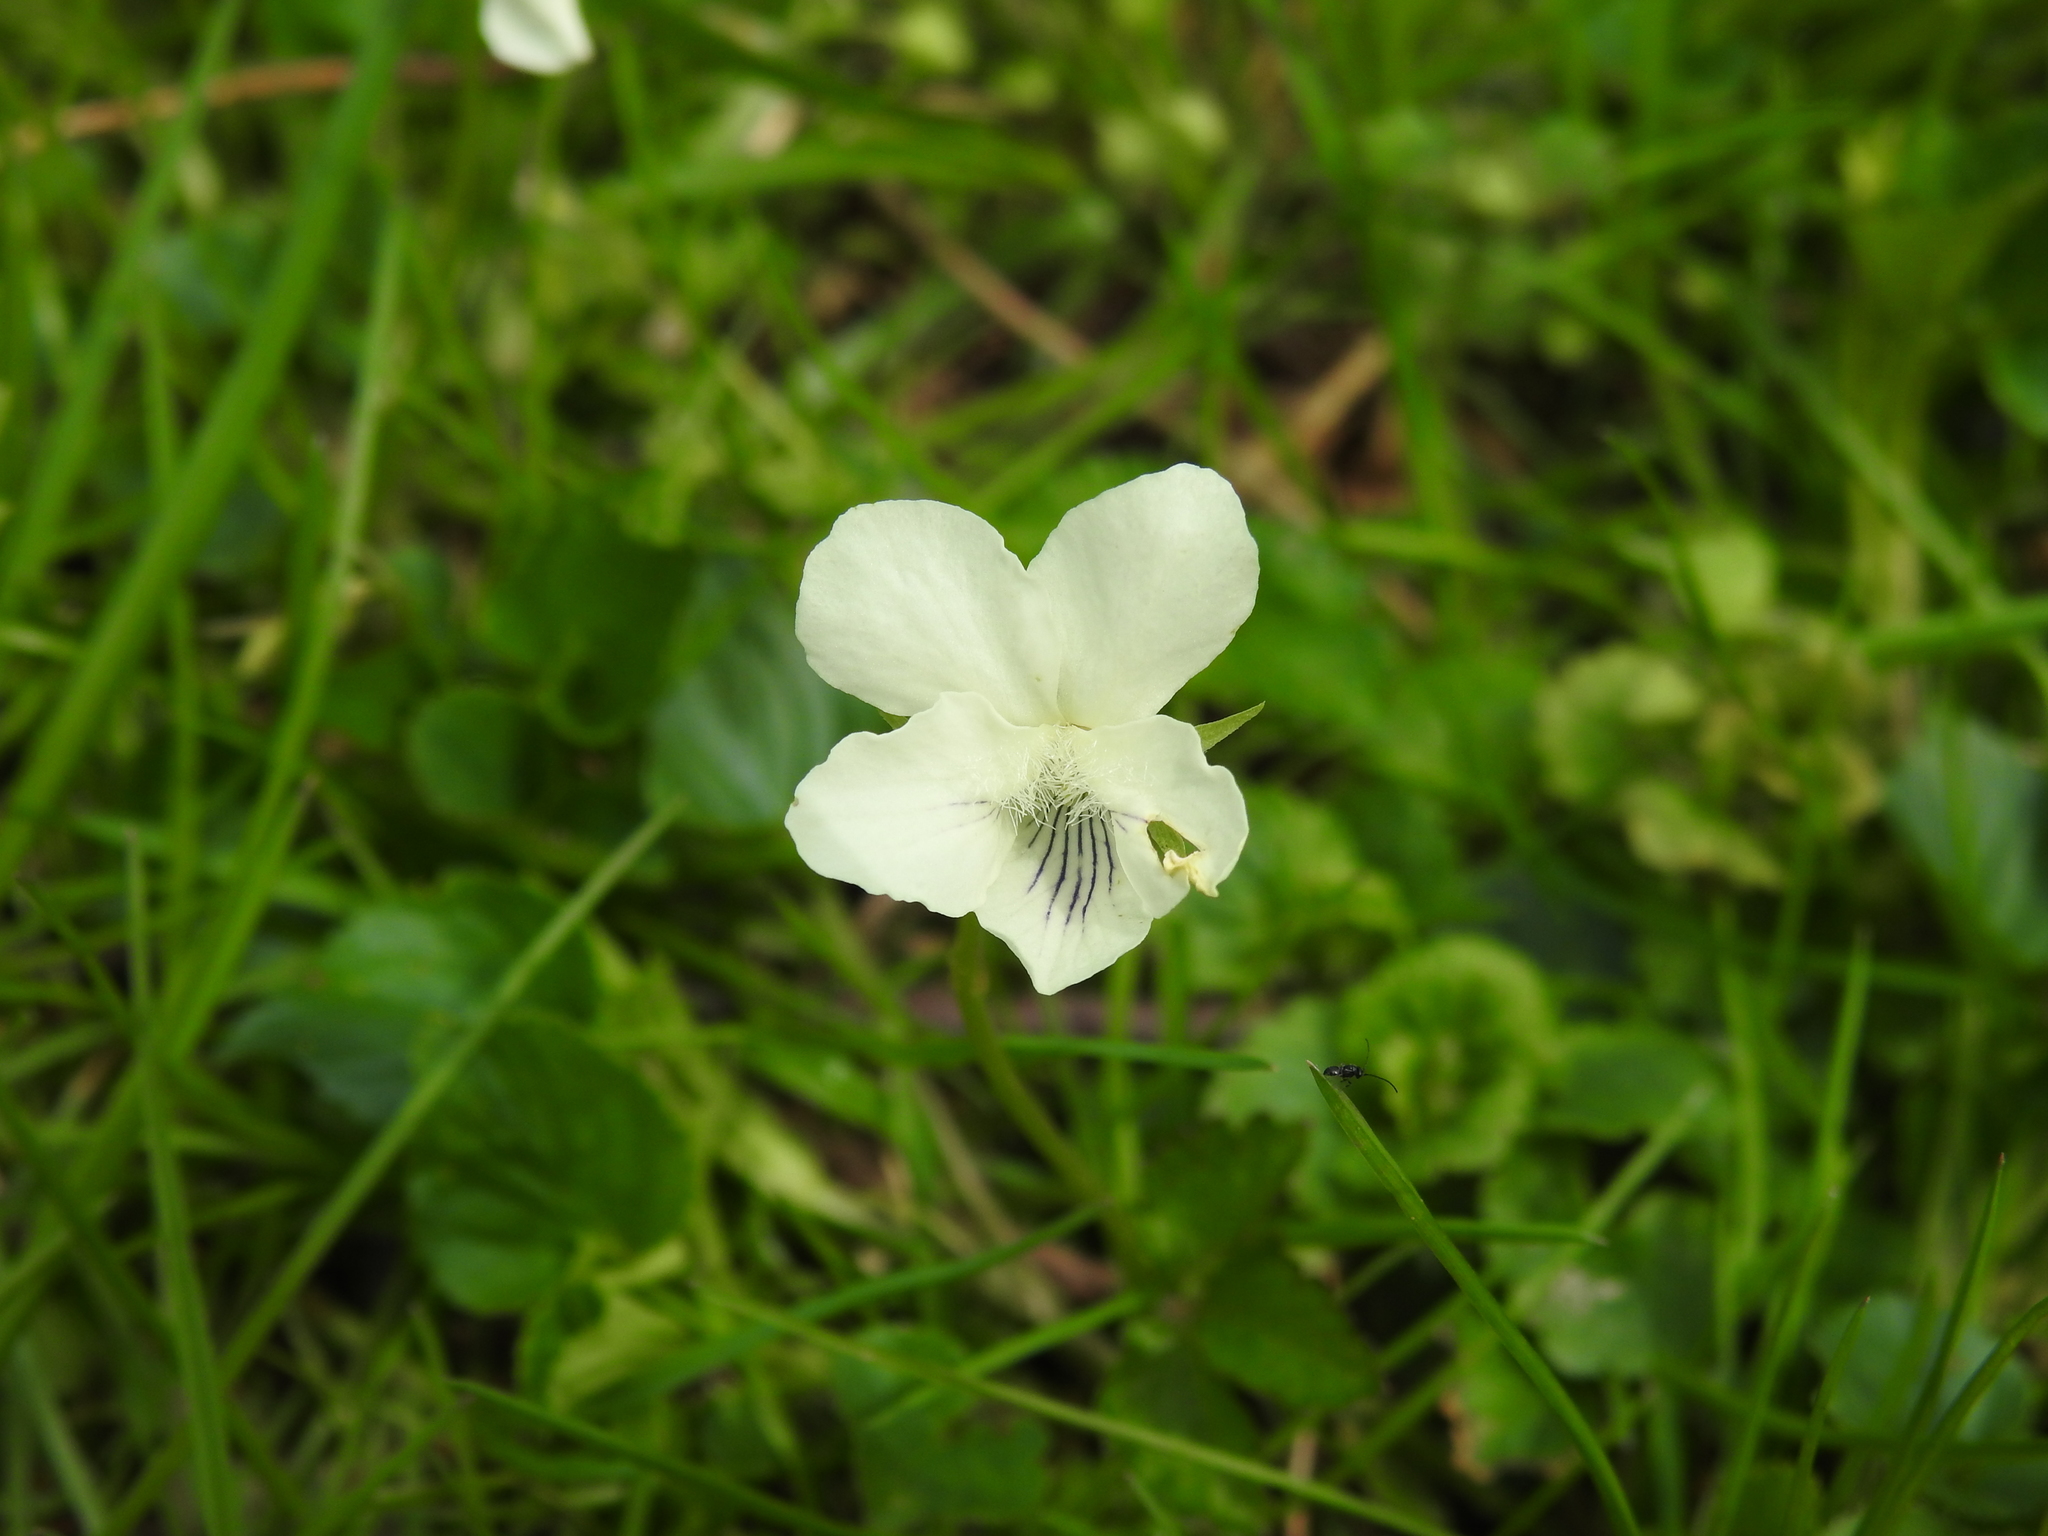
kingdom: Plantae
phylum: Tracheophyta
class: Magnoliopsida
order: Malpighiales
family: Violaceae
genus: Viola
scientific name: Viola striata
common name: Cream violet
